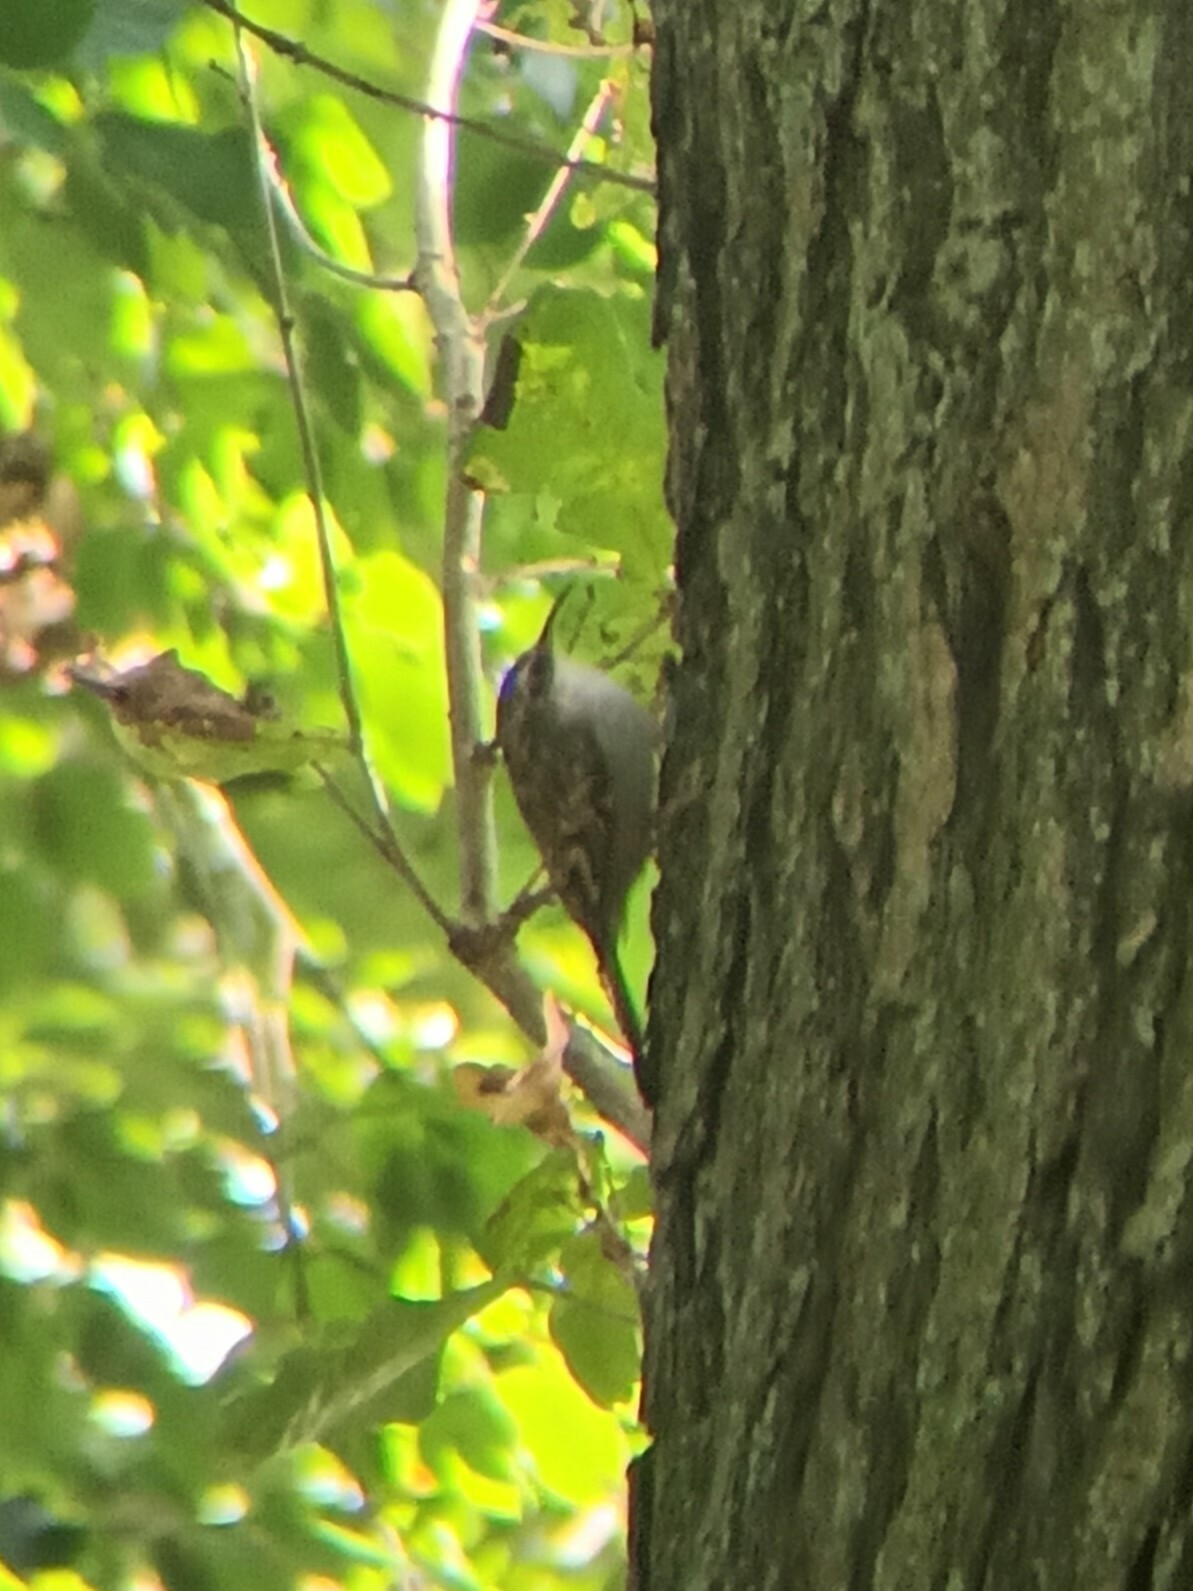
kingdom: Animalia
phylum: Chordata
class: Aves
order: Passeriformes
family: Certhiidae
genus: Certhia
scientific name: Certhia brachydactyla
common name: Short-toed treecreeper
